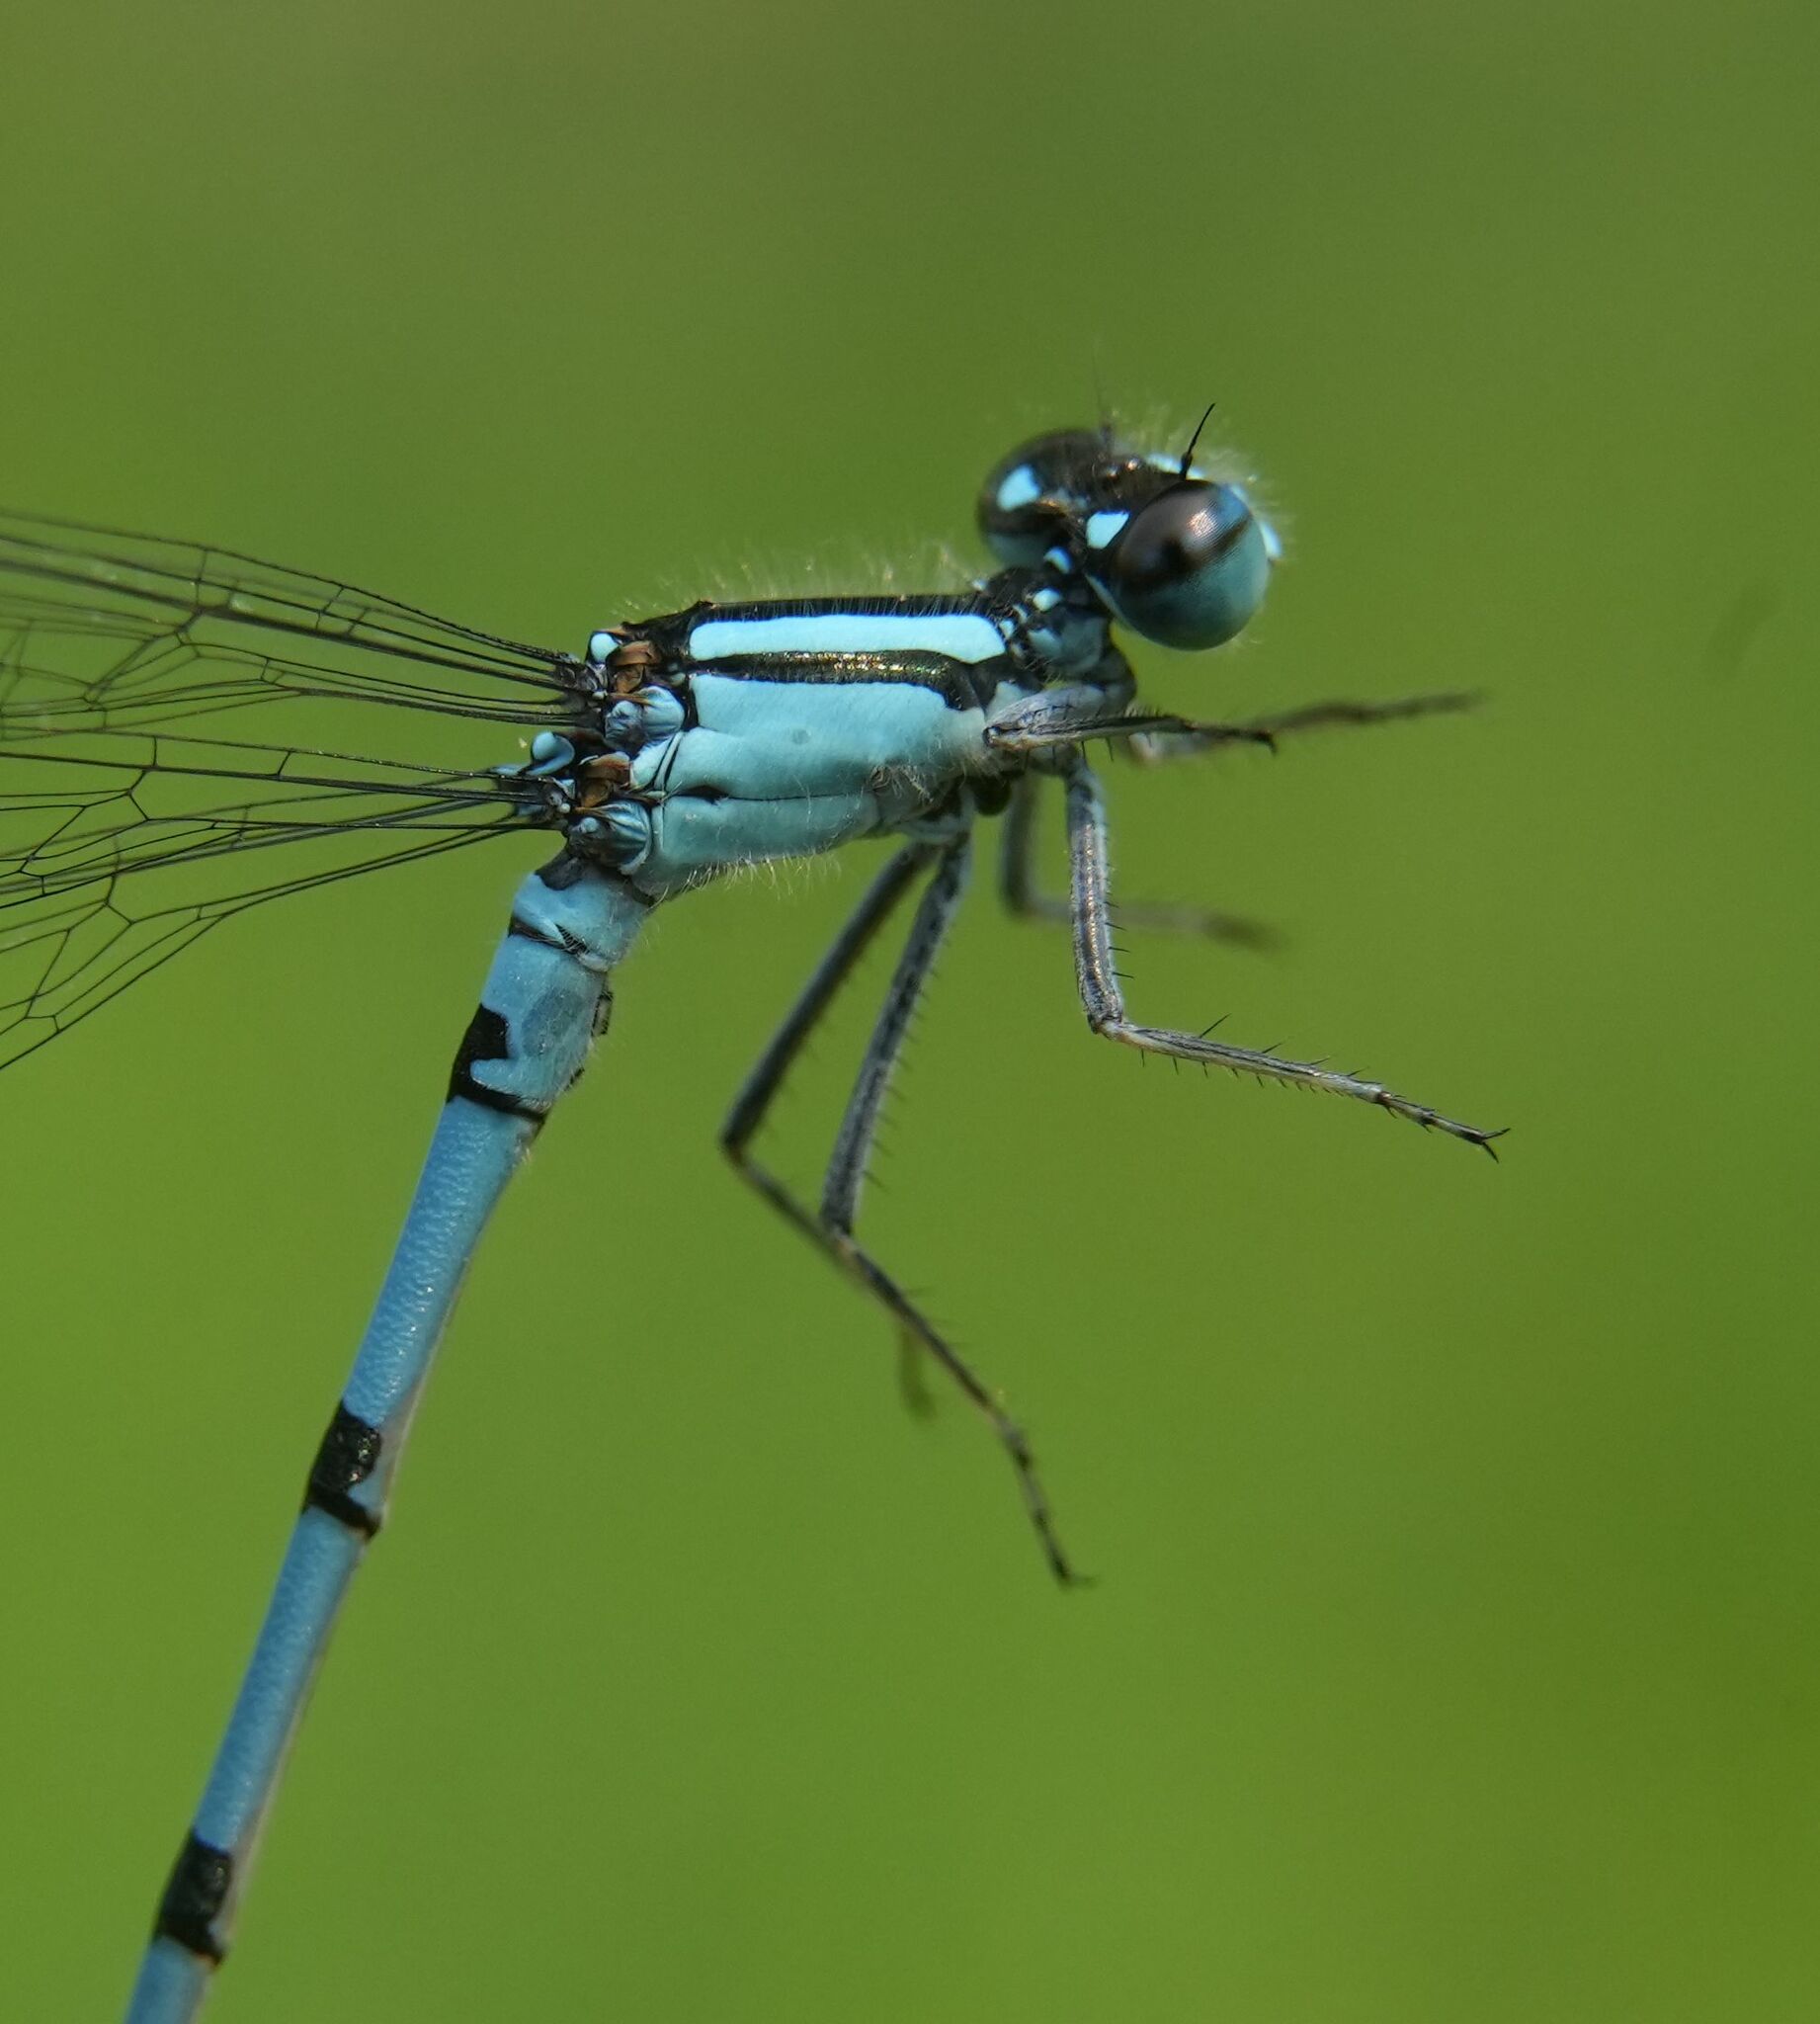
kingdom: Animalia
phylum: Arthropoda
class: Insecta
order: Odonata
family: Coenagrionidae
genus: Enallagma
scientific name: Enallagma ebrium
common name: Marsh bluet
